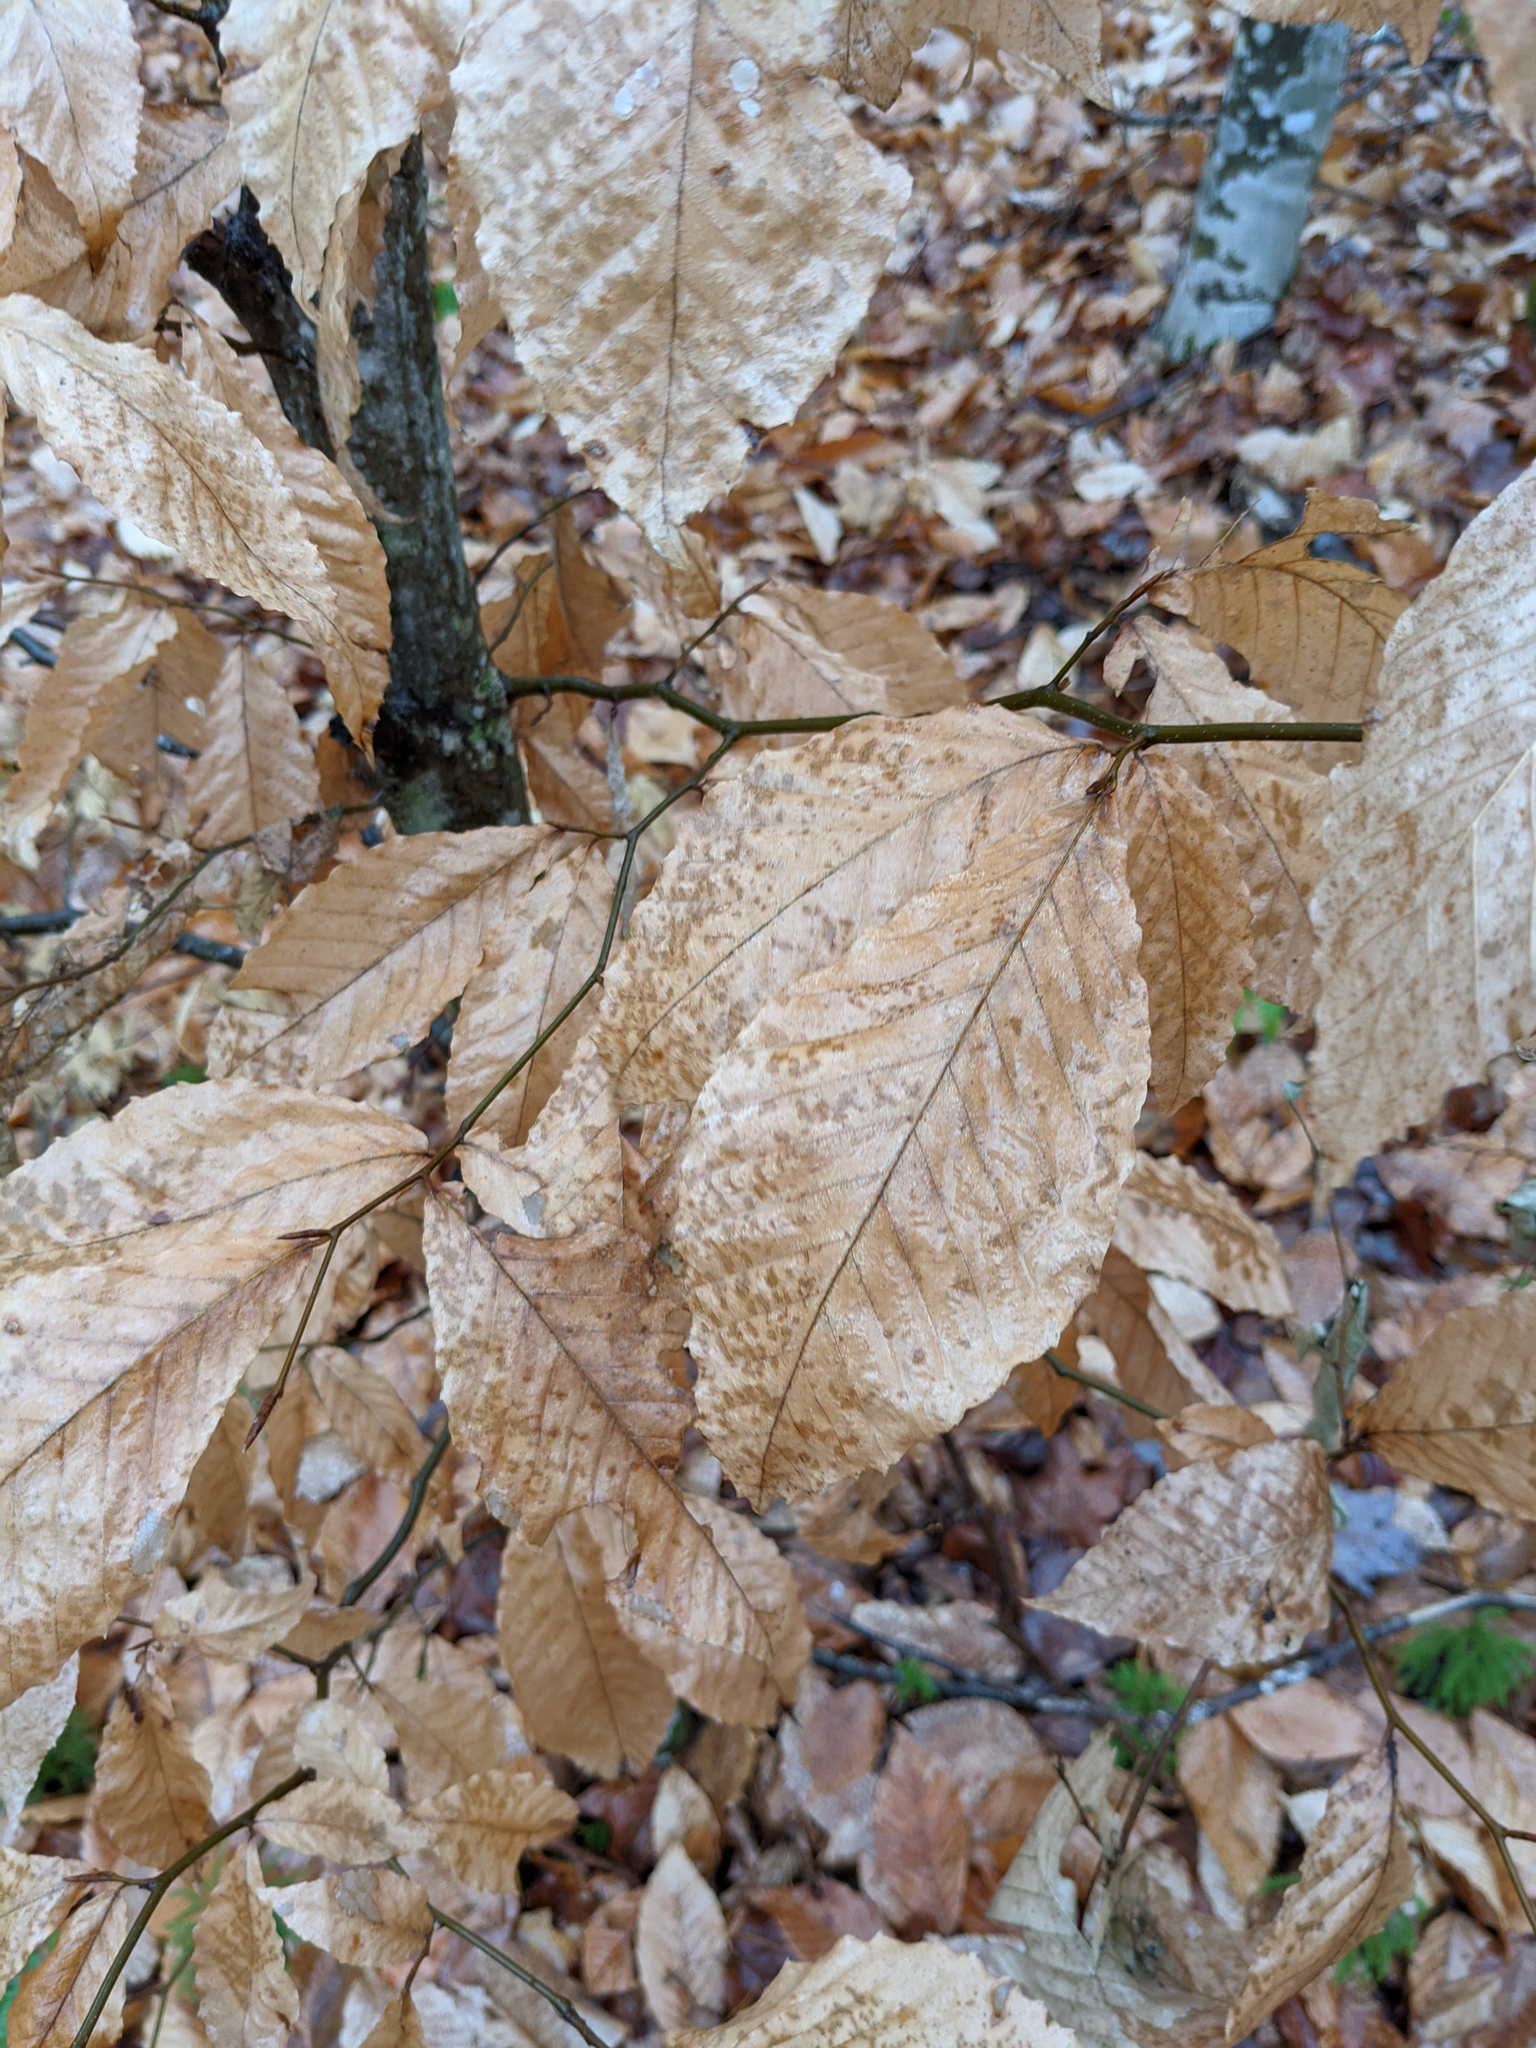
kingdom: Plantae
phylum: Tracheophyta
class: Magnoliopsida
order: Fagales
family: Fagaceae
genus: Fagus
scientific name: Fagus grandifolia
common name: American beech
